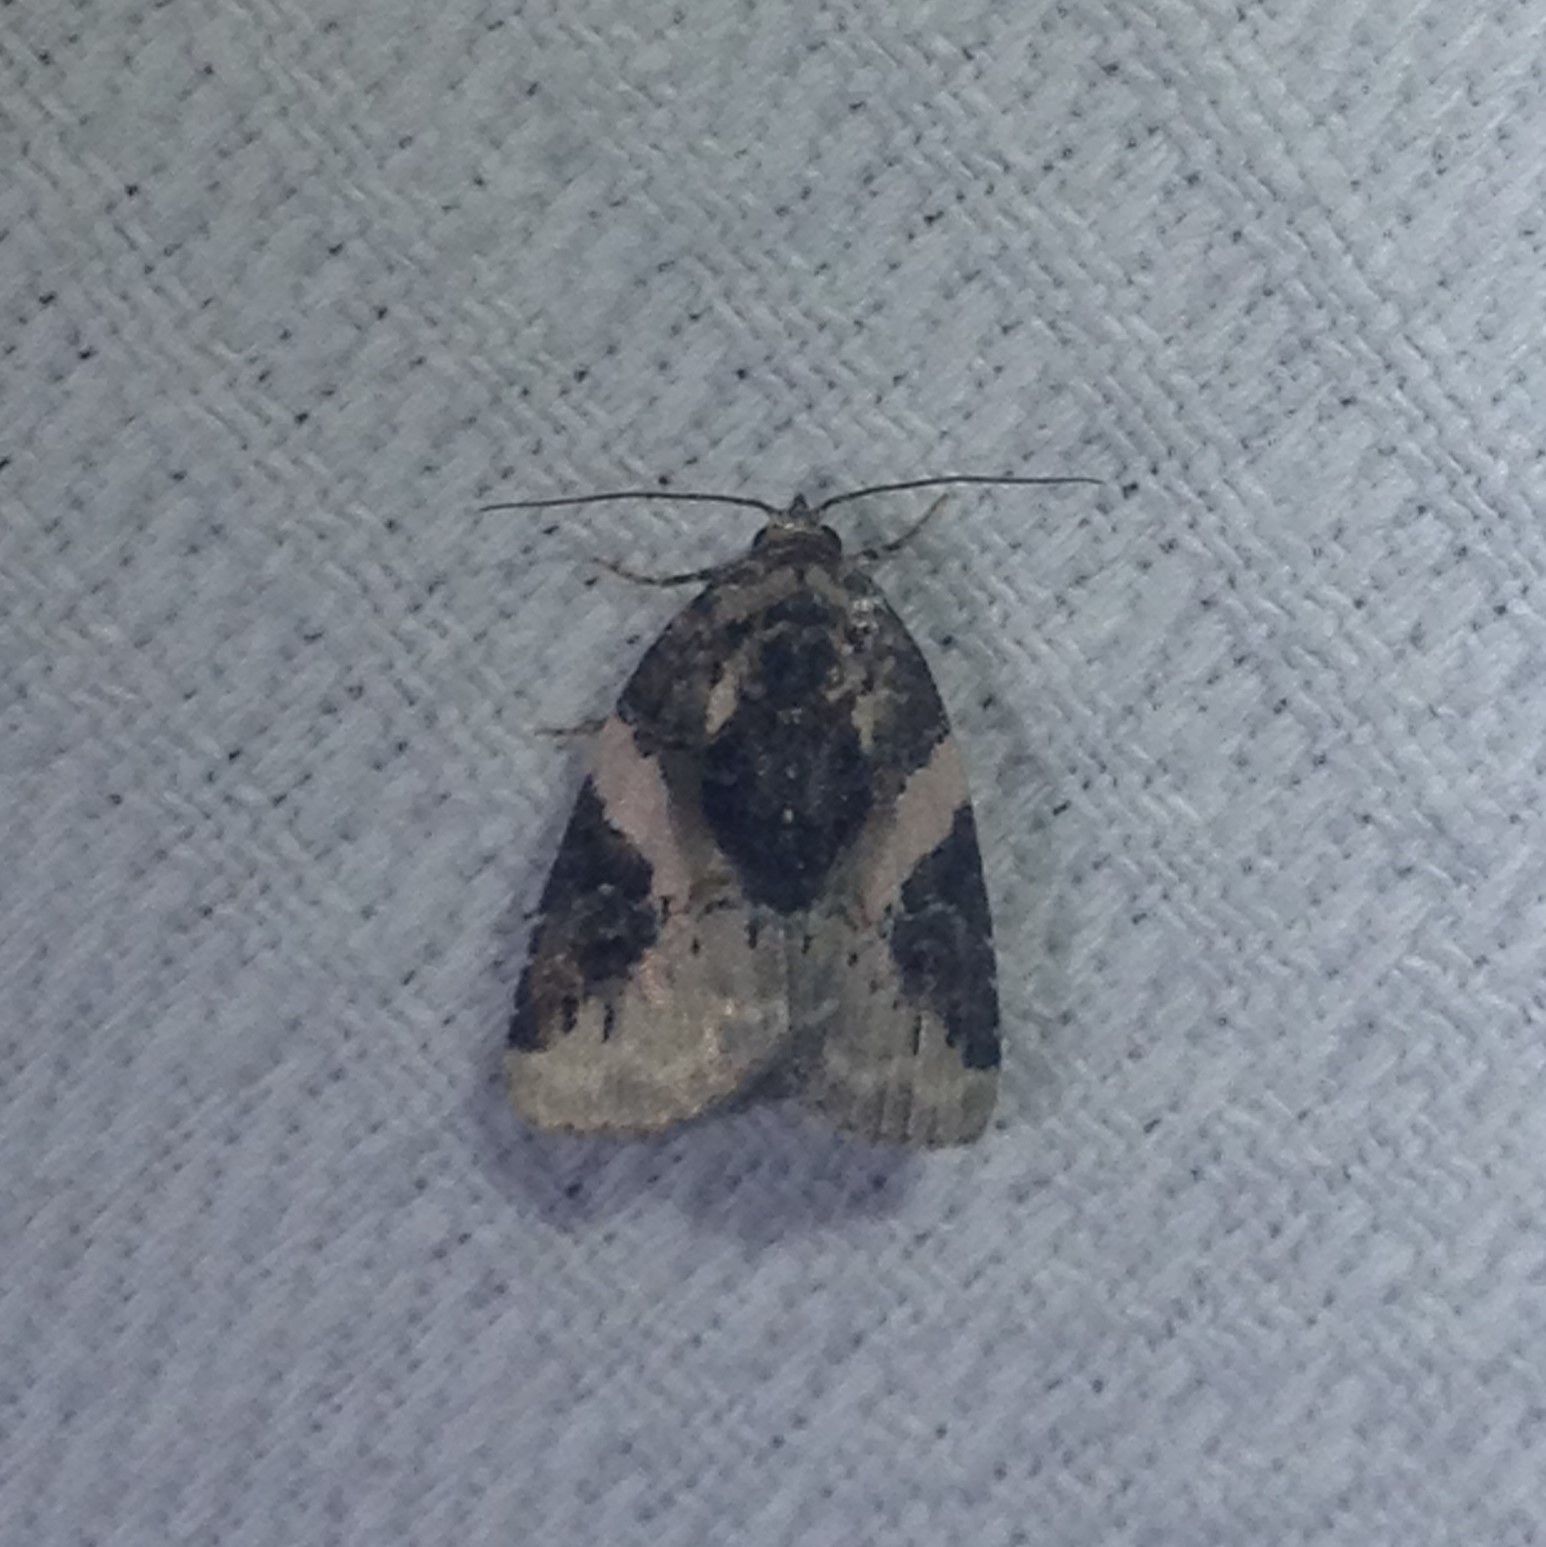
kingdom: Animalia
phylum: Arthropoda
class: Insecta
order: Lepidoptera
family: Noctuidae
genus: Pseudeustrotia
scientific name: Pseudeustrotia carneola
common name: Pink-barred lithacodia moth
